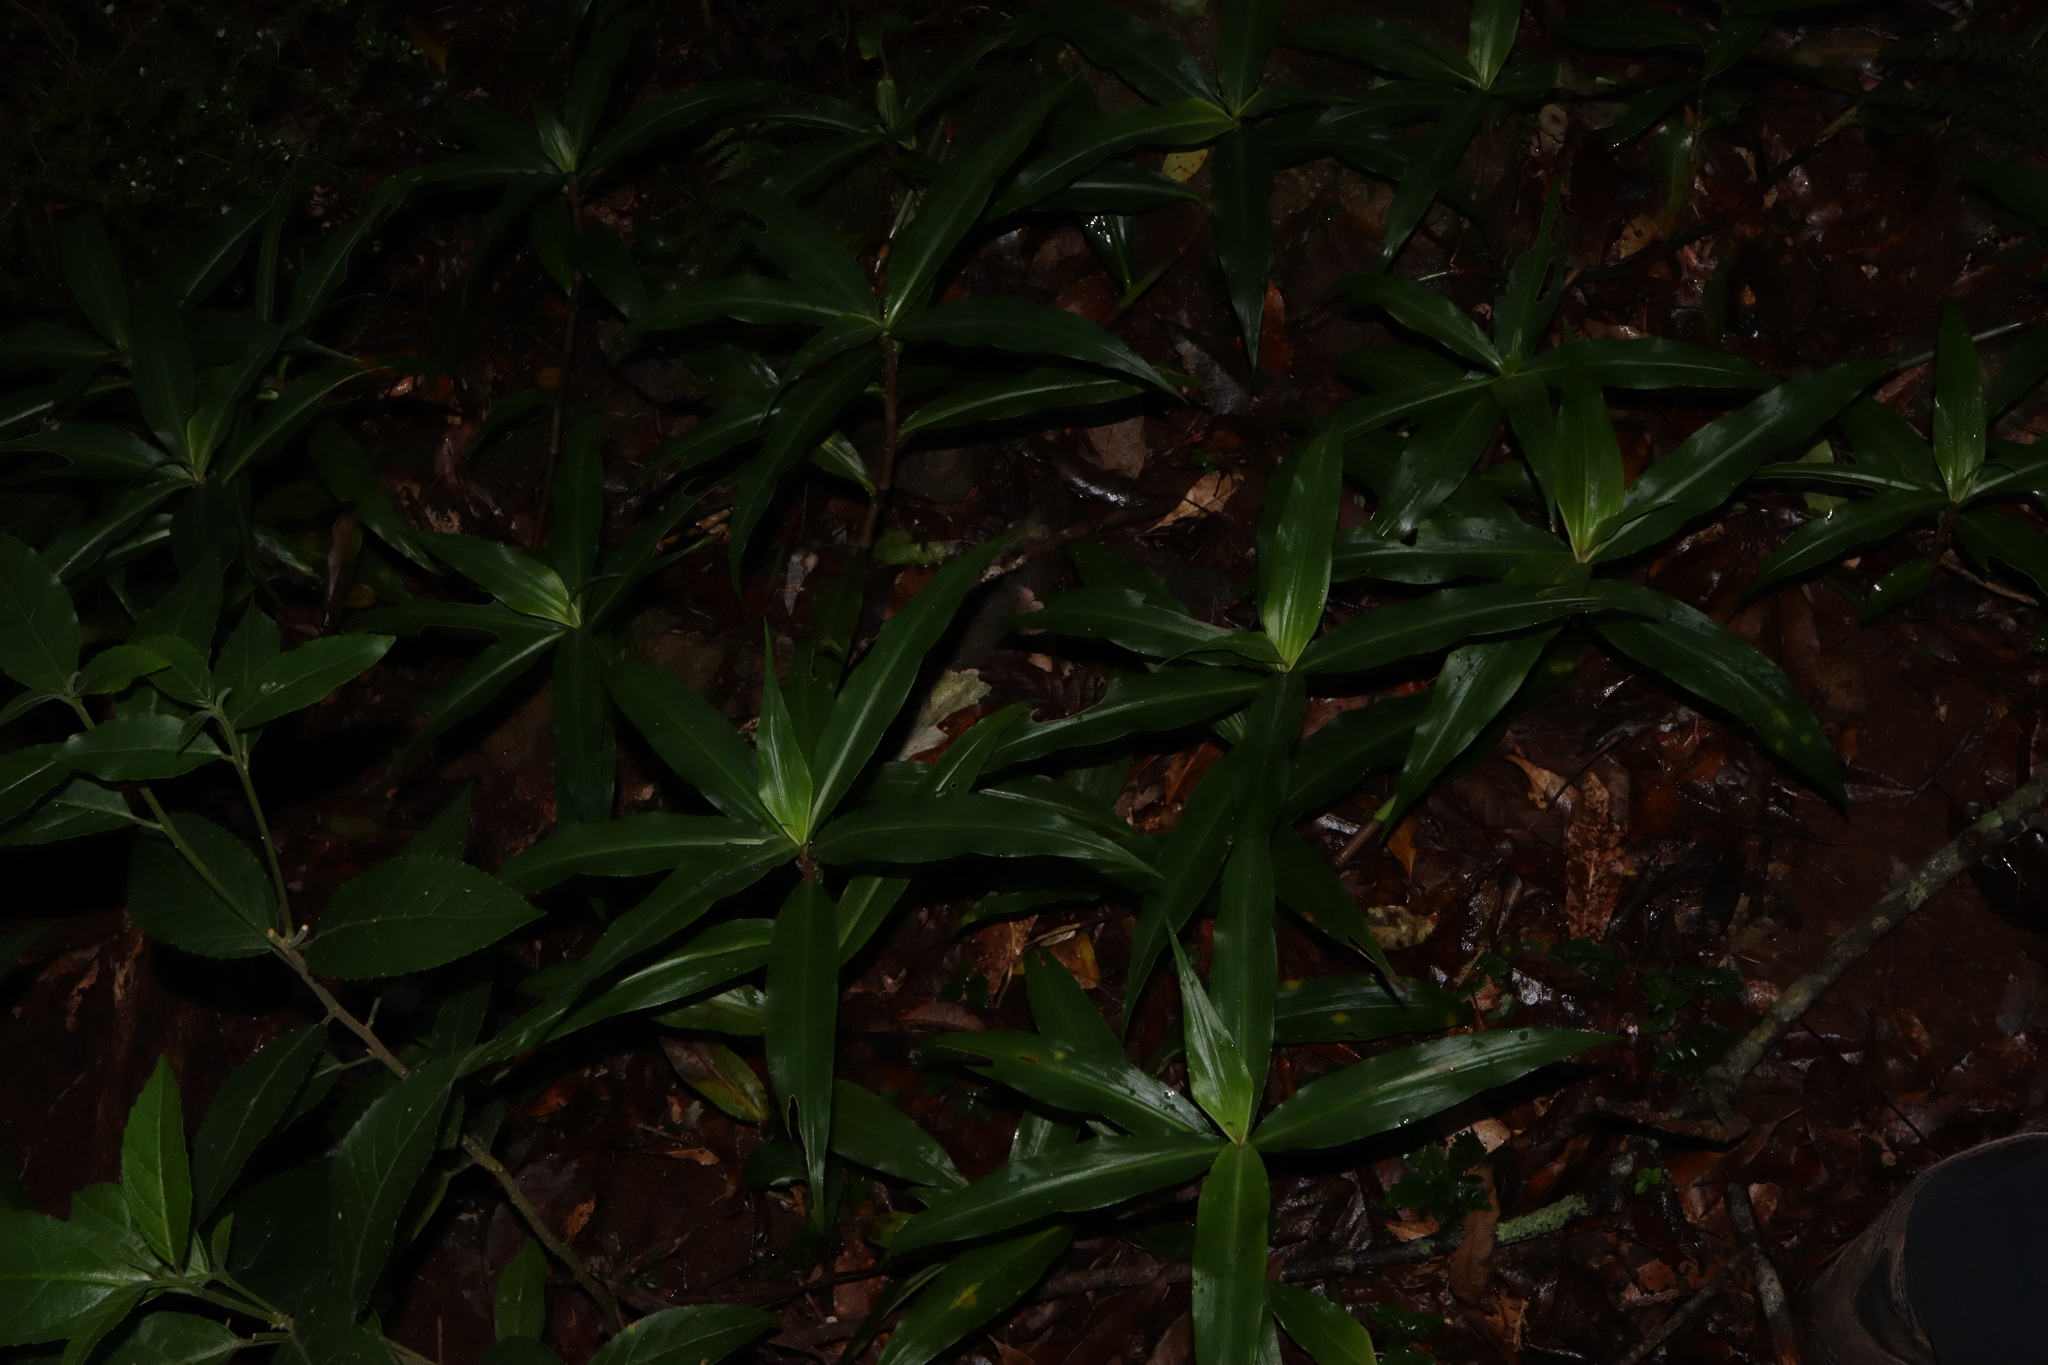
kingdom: Plantae
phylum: Tracheophyta
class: Liliopsida
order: Commelinales
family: Commelinaceae
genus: Pollia
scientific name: Pollia crispata
